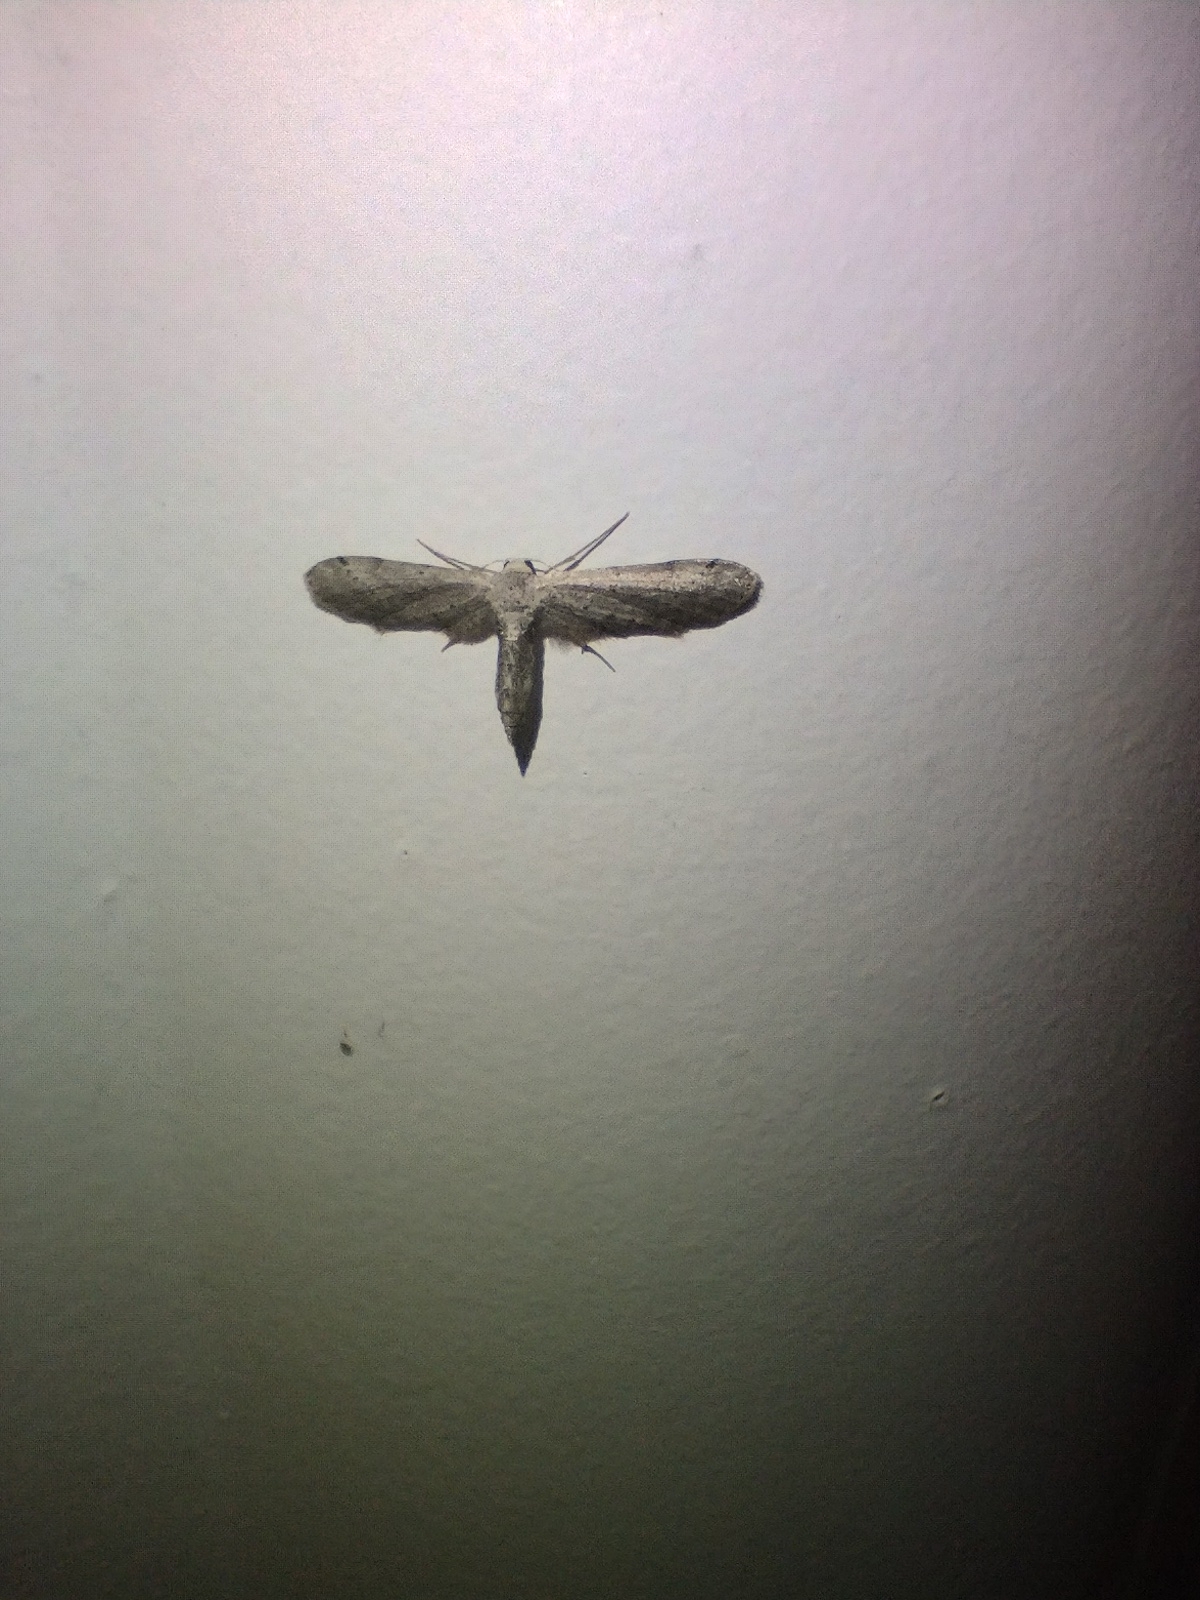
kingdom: Animalia
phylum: Arthropoda
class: Insecta
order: Lepidoptera
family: Geometridae
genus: Euacidalia
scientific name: Euacidalia brownsvillea
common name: Cankerworm
